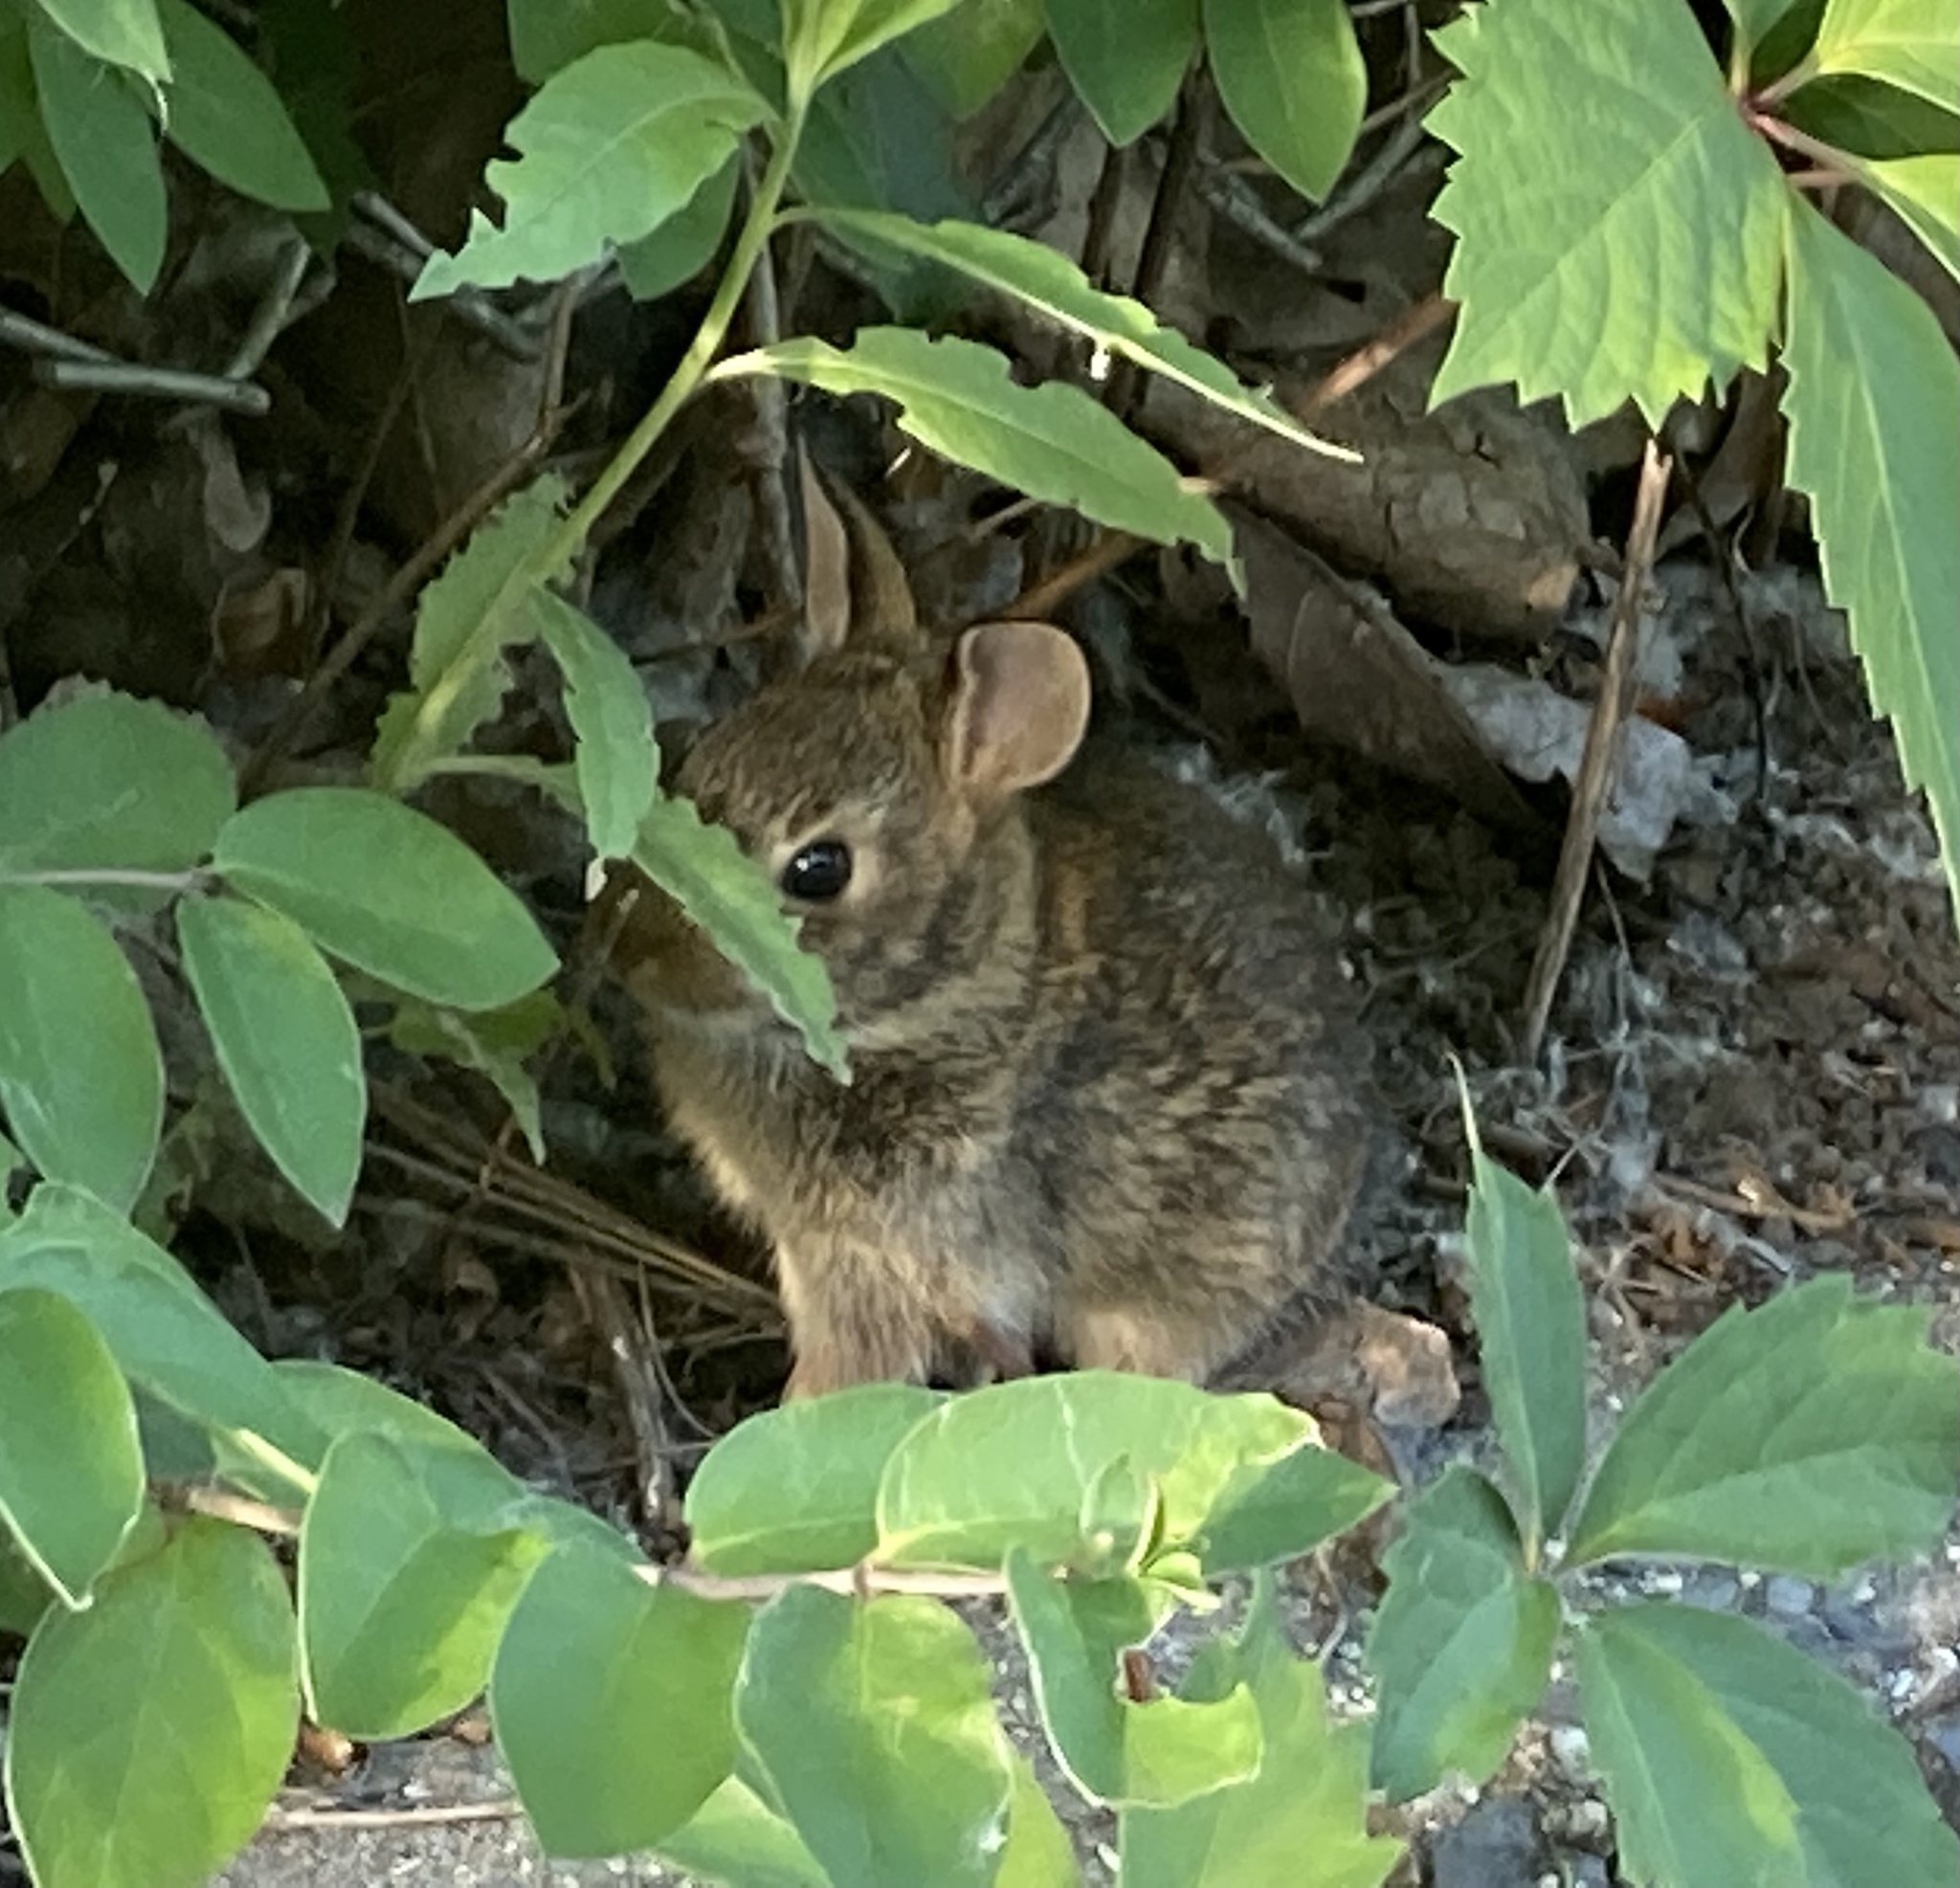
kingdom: Animalia
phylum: Chordata
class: Mammalia
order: Lagomorpha
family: Leporidae
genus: Sylvilagus
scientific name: Sylvilagus floridanus
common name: Eastern cottontail
